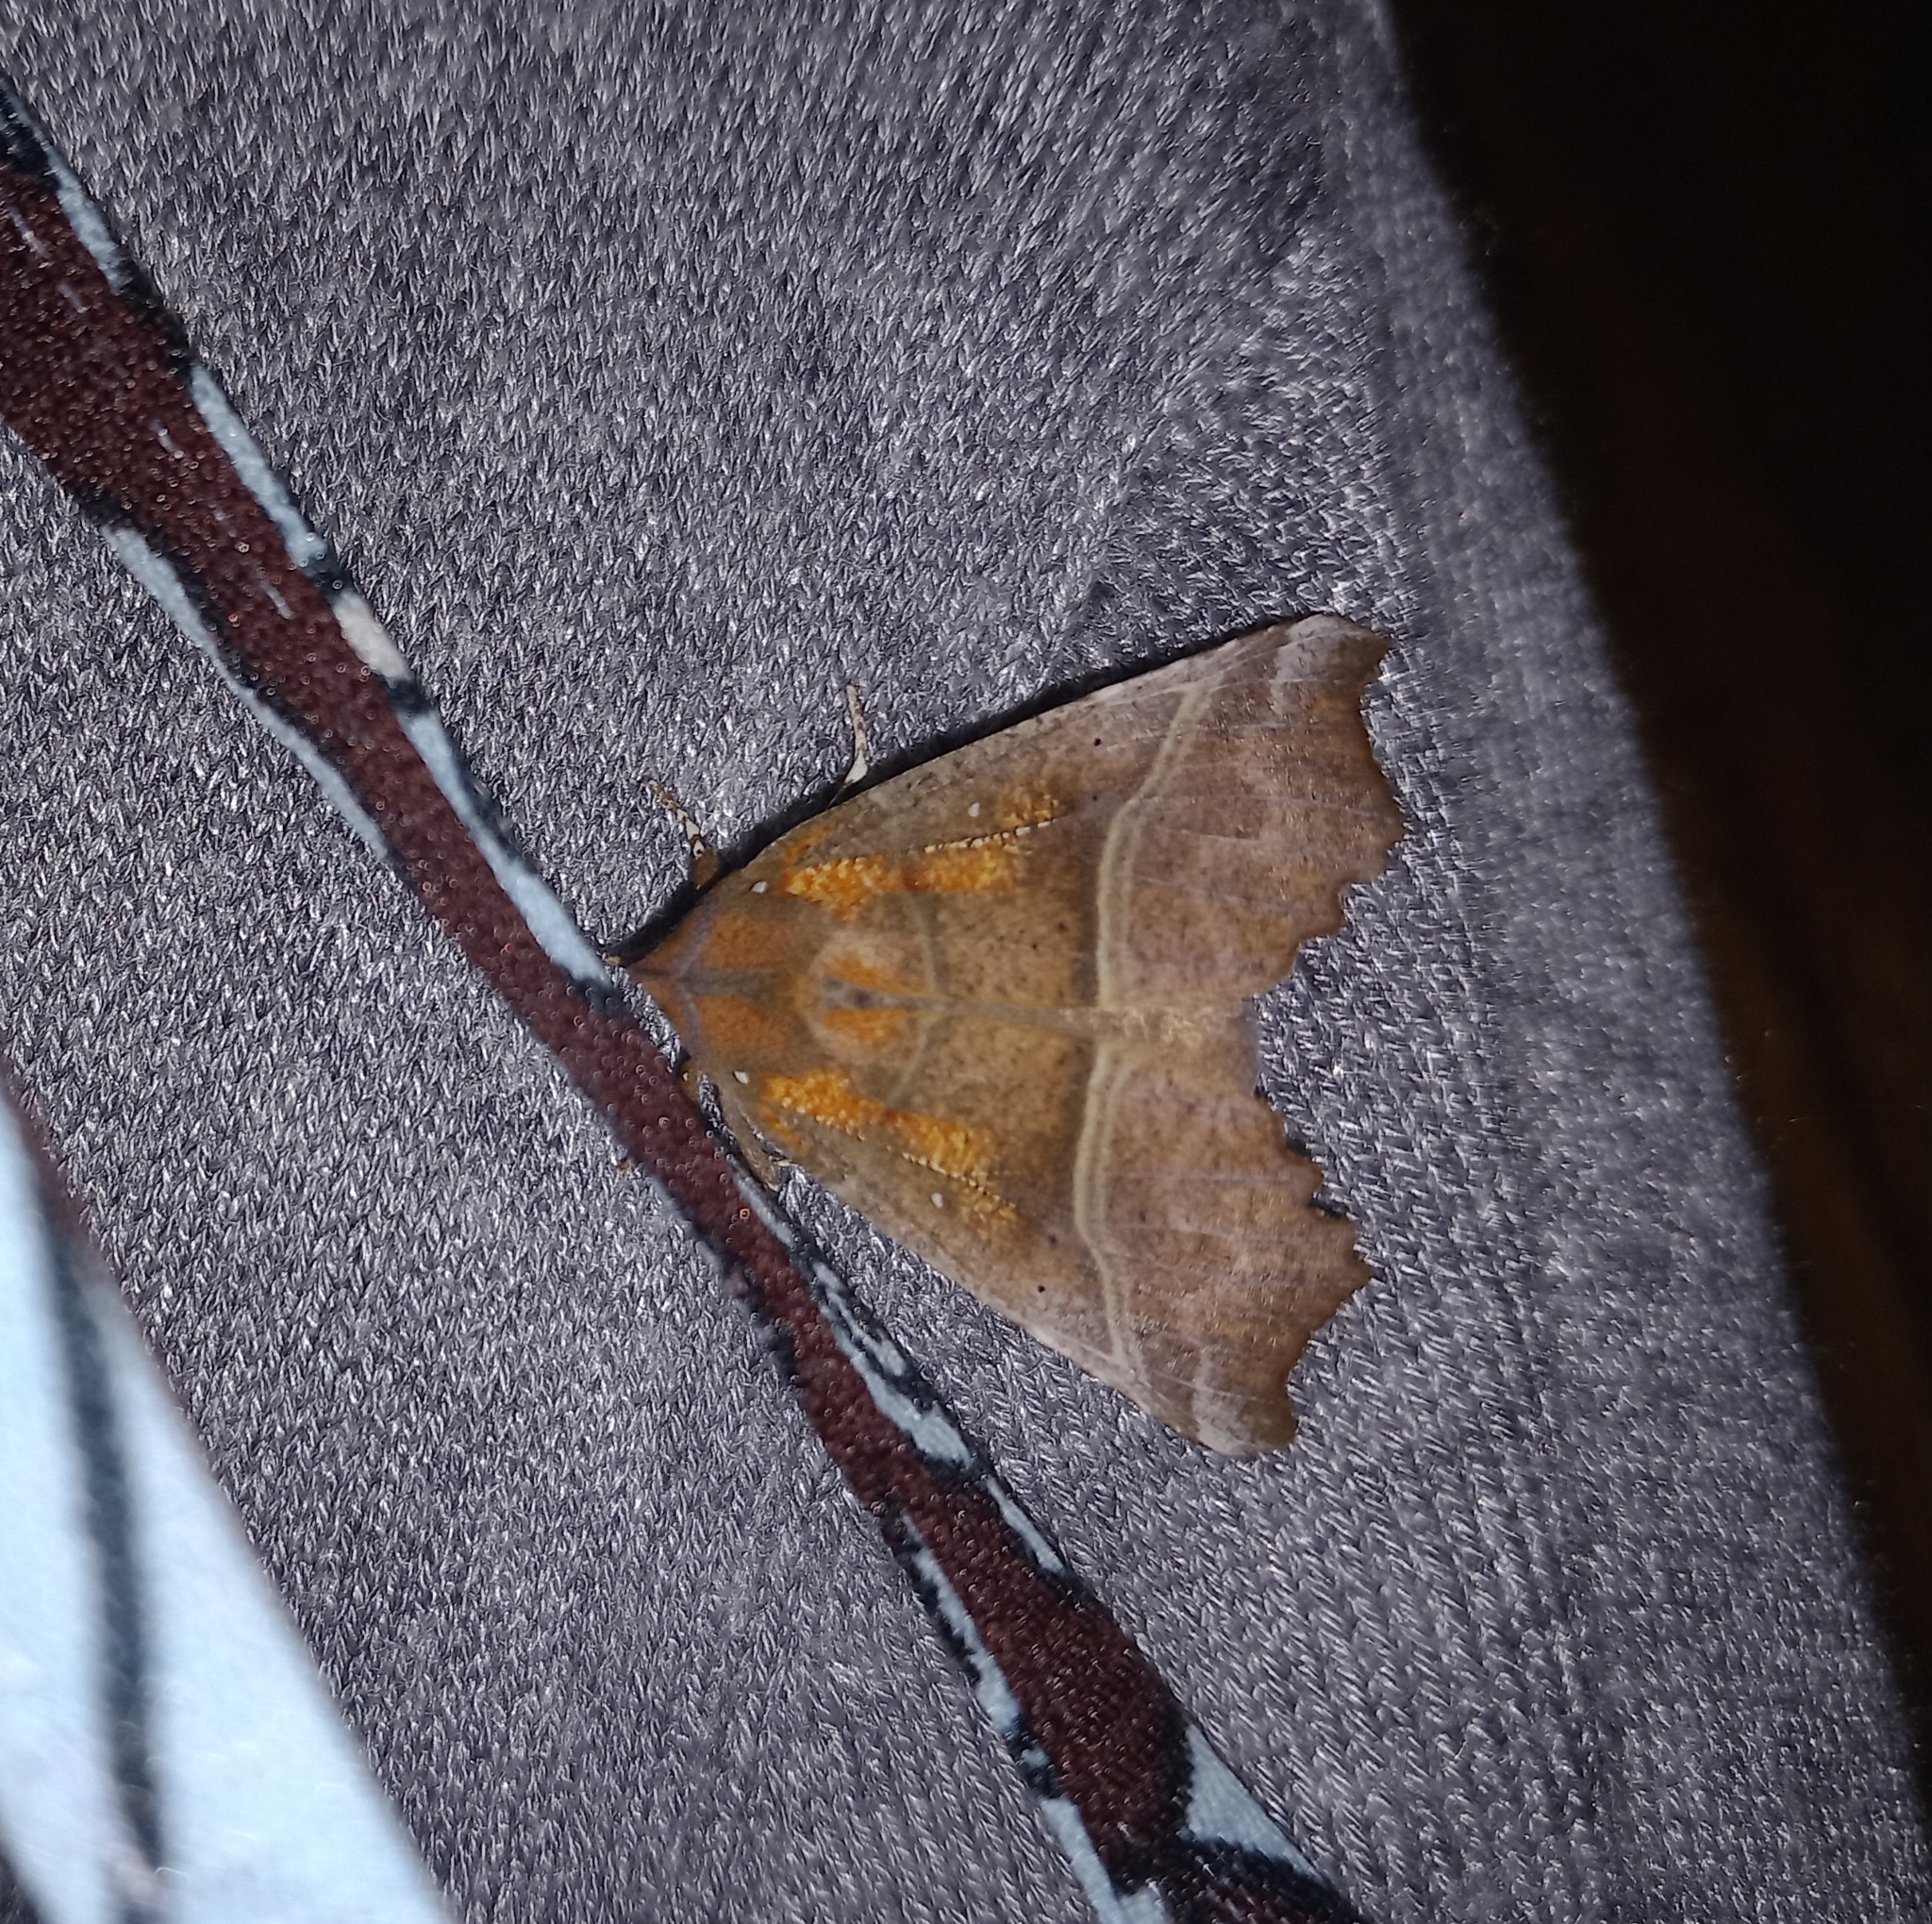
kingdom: Animalia
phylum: Arthropoda
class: Insecta
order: Lepidoptera
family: Erebidae
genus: Scoliopteryx
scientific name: Scoliopteryx libatrix
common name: Herald
